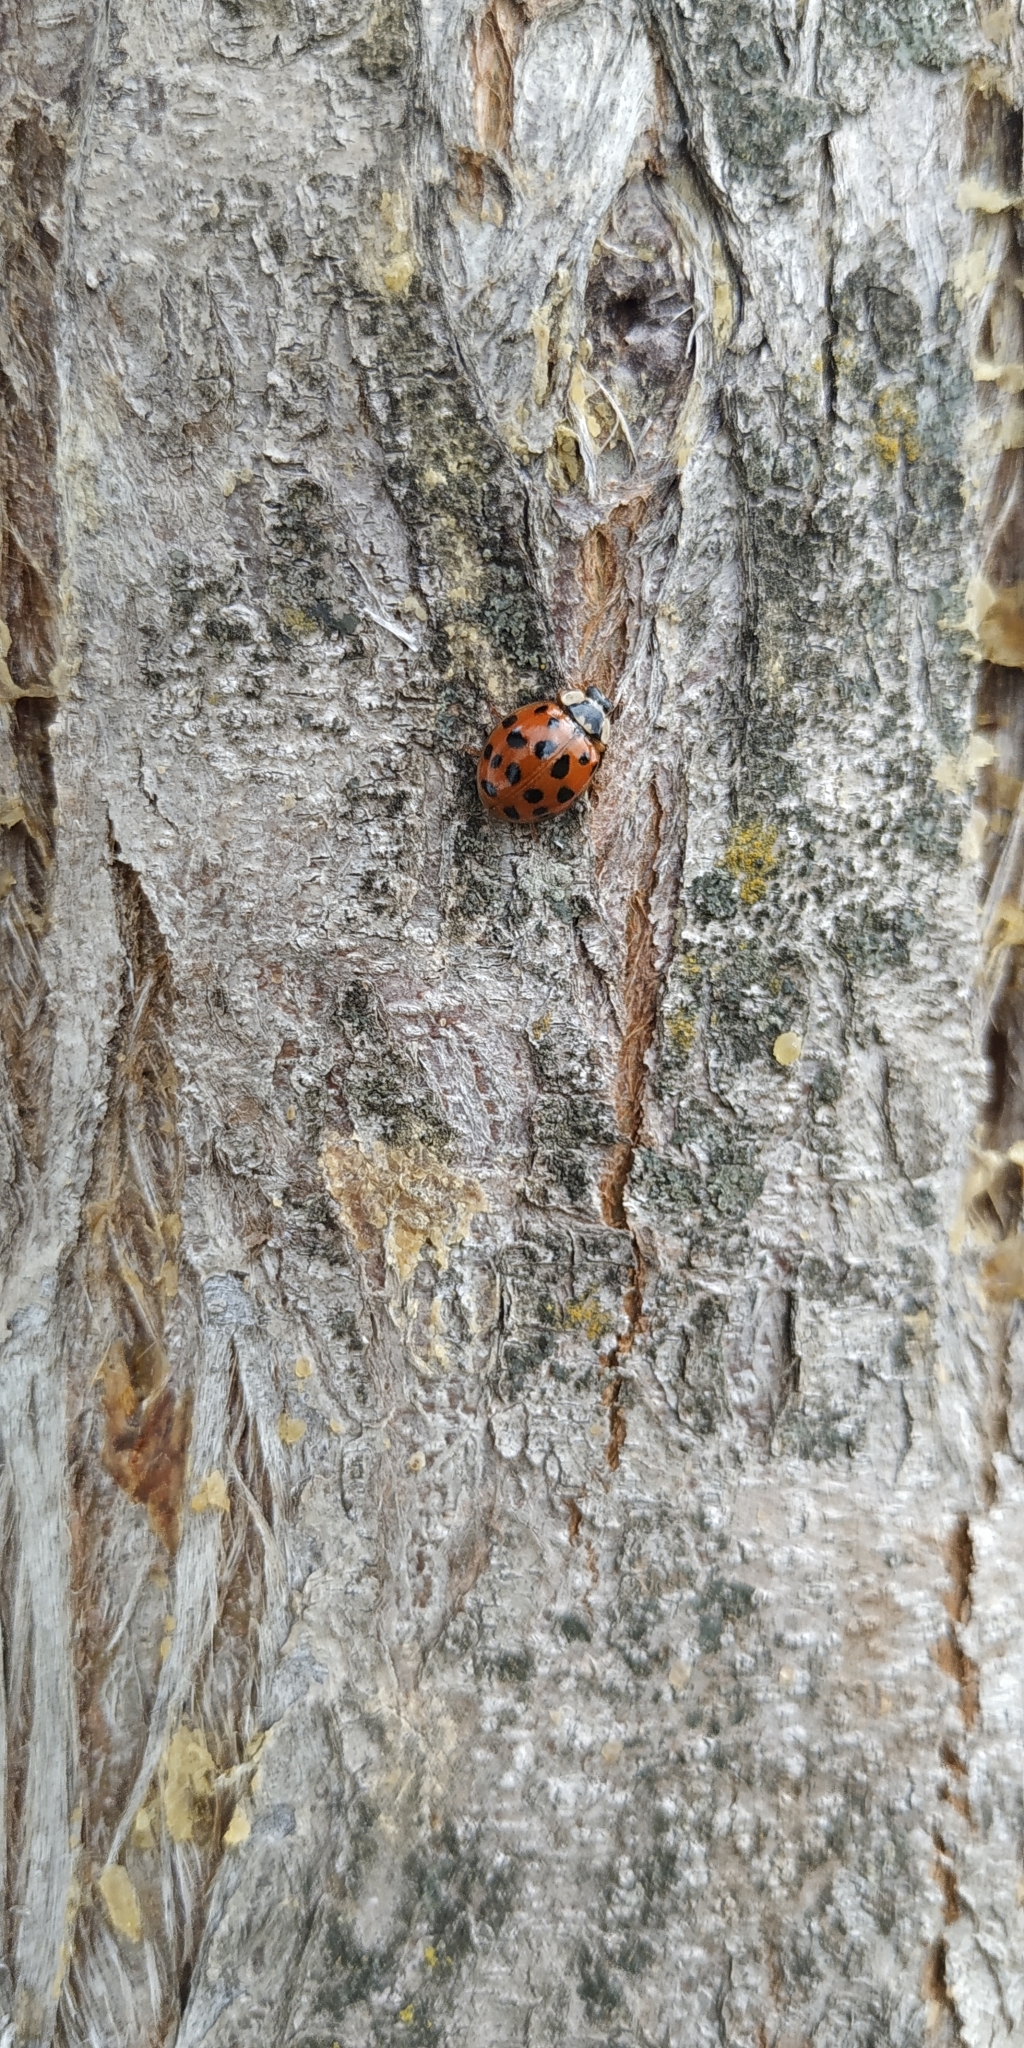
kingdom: Animalia
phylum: Arthropoda
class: Insecta
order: Coleoptera
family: Coccinellidae
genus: Harmonia
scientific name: Harmonia axyridis
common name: Harlequin ladybird
